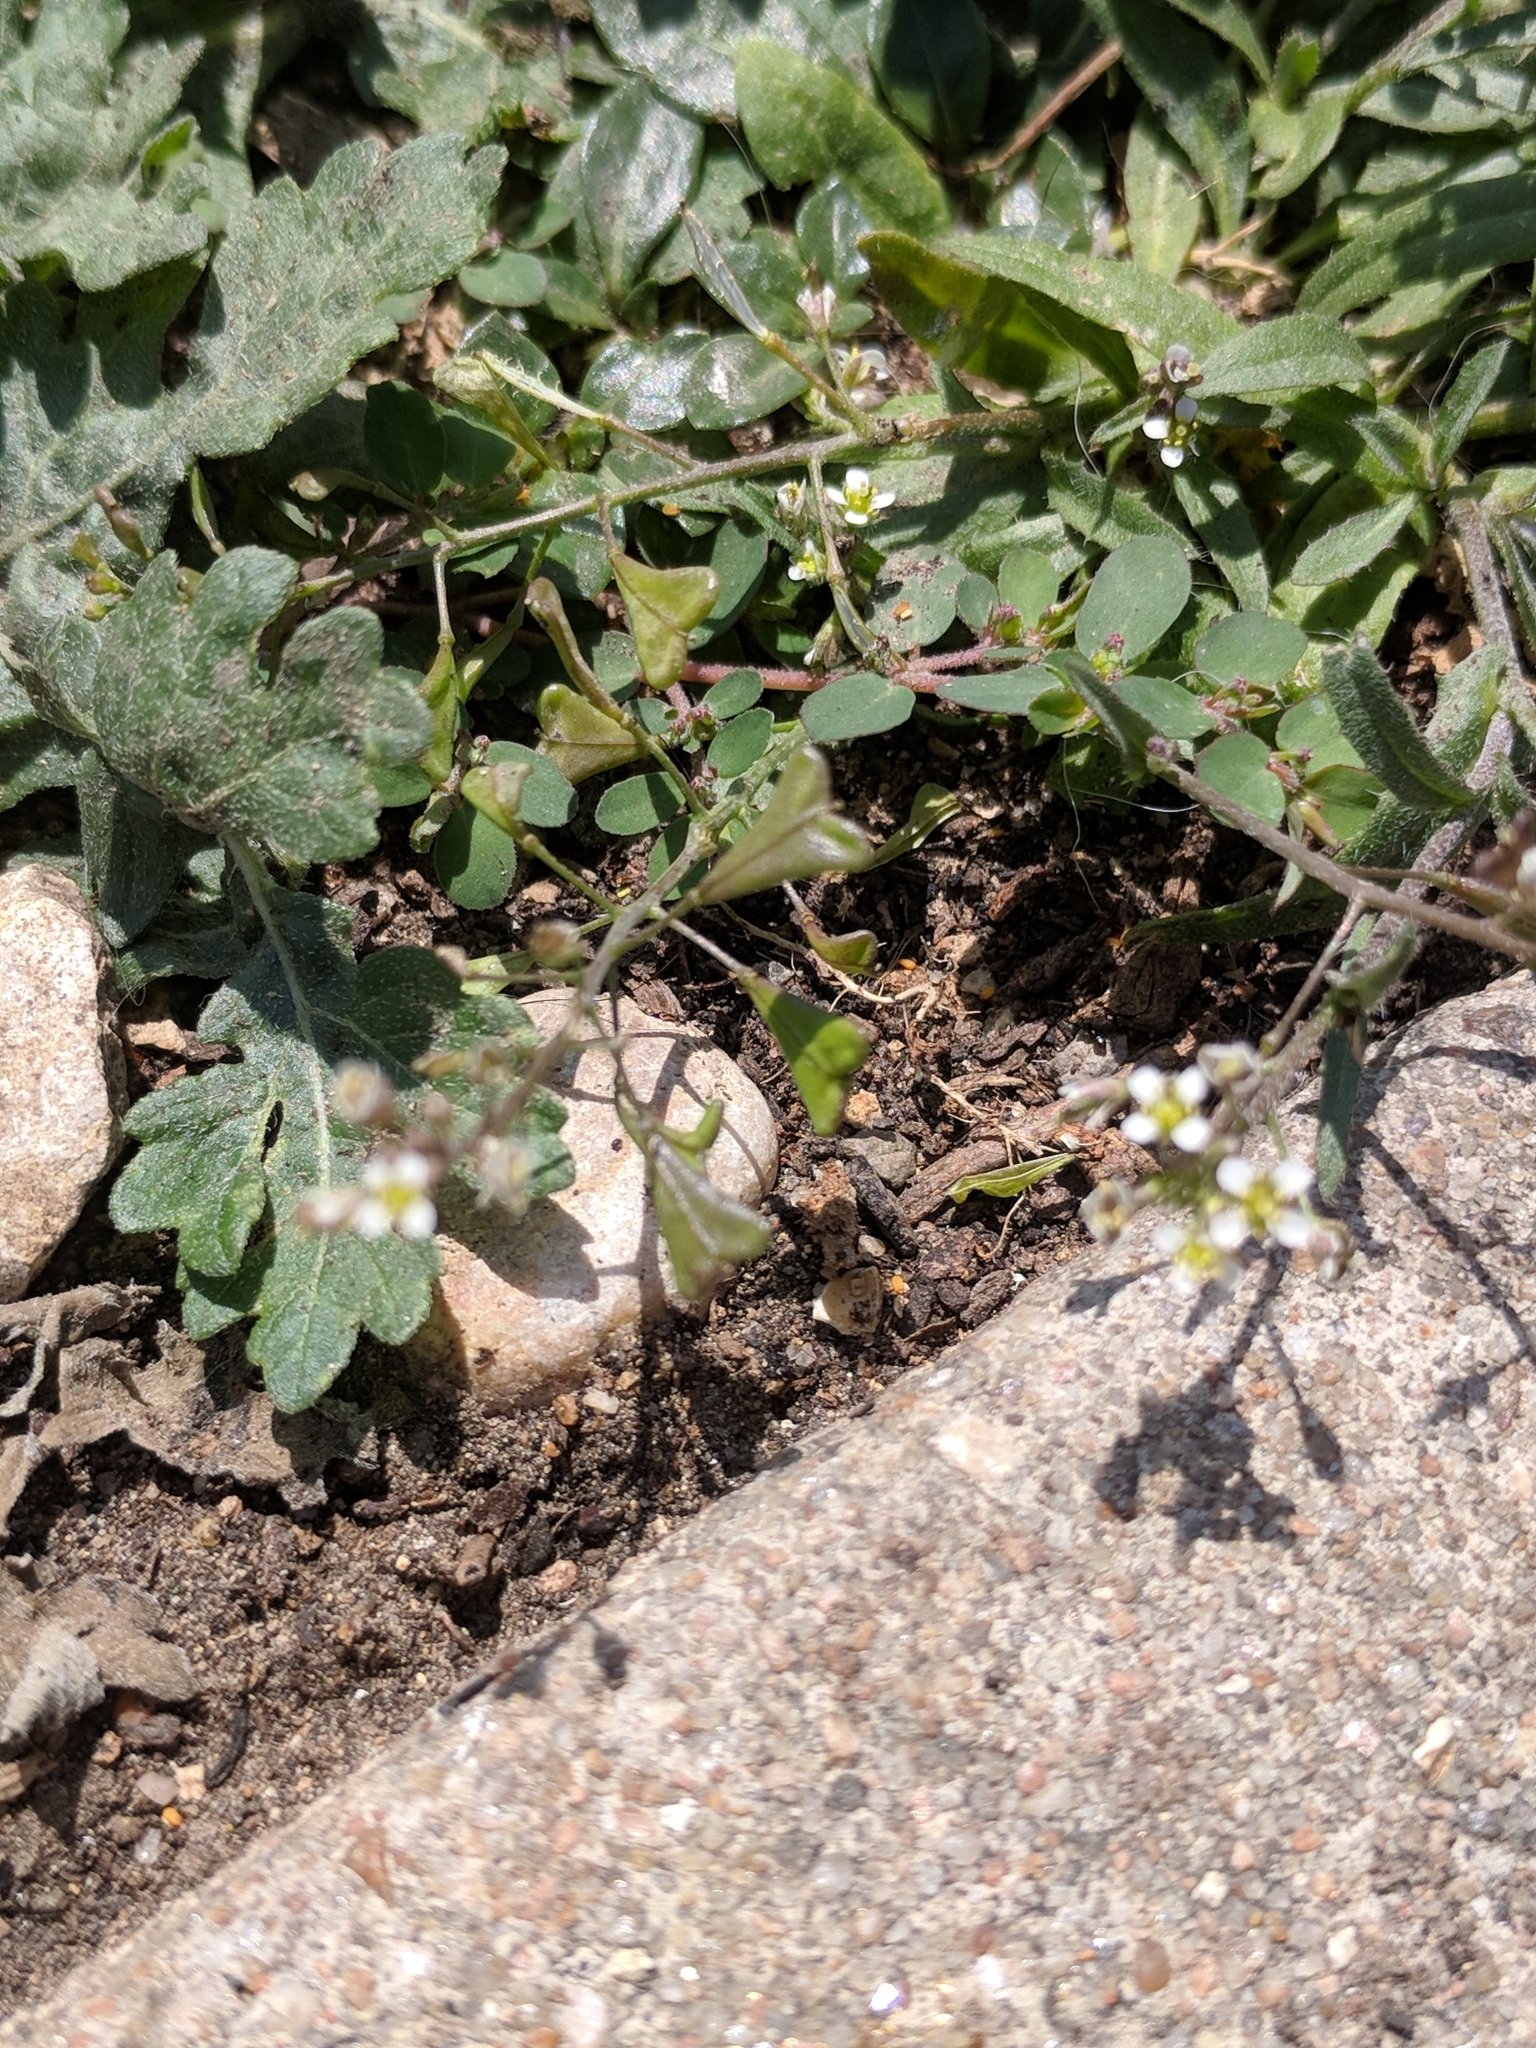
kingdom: Plantae
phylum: Tracheophyta
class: Magnoliopsida
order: Brassicales
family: Brassicaceae
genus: Capsella
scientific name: Capsella bursa-pastoris
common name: Shepherd's purse
